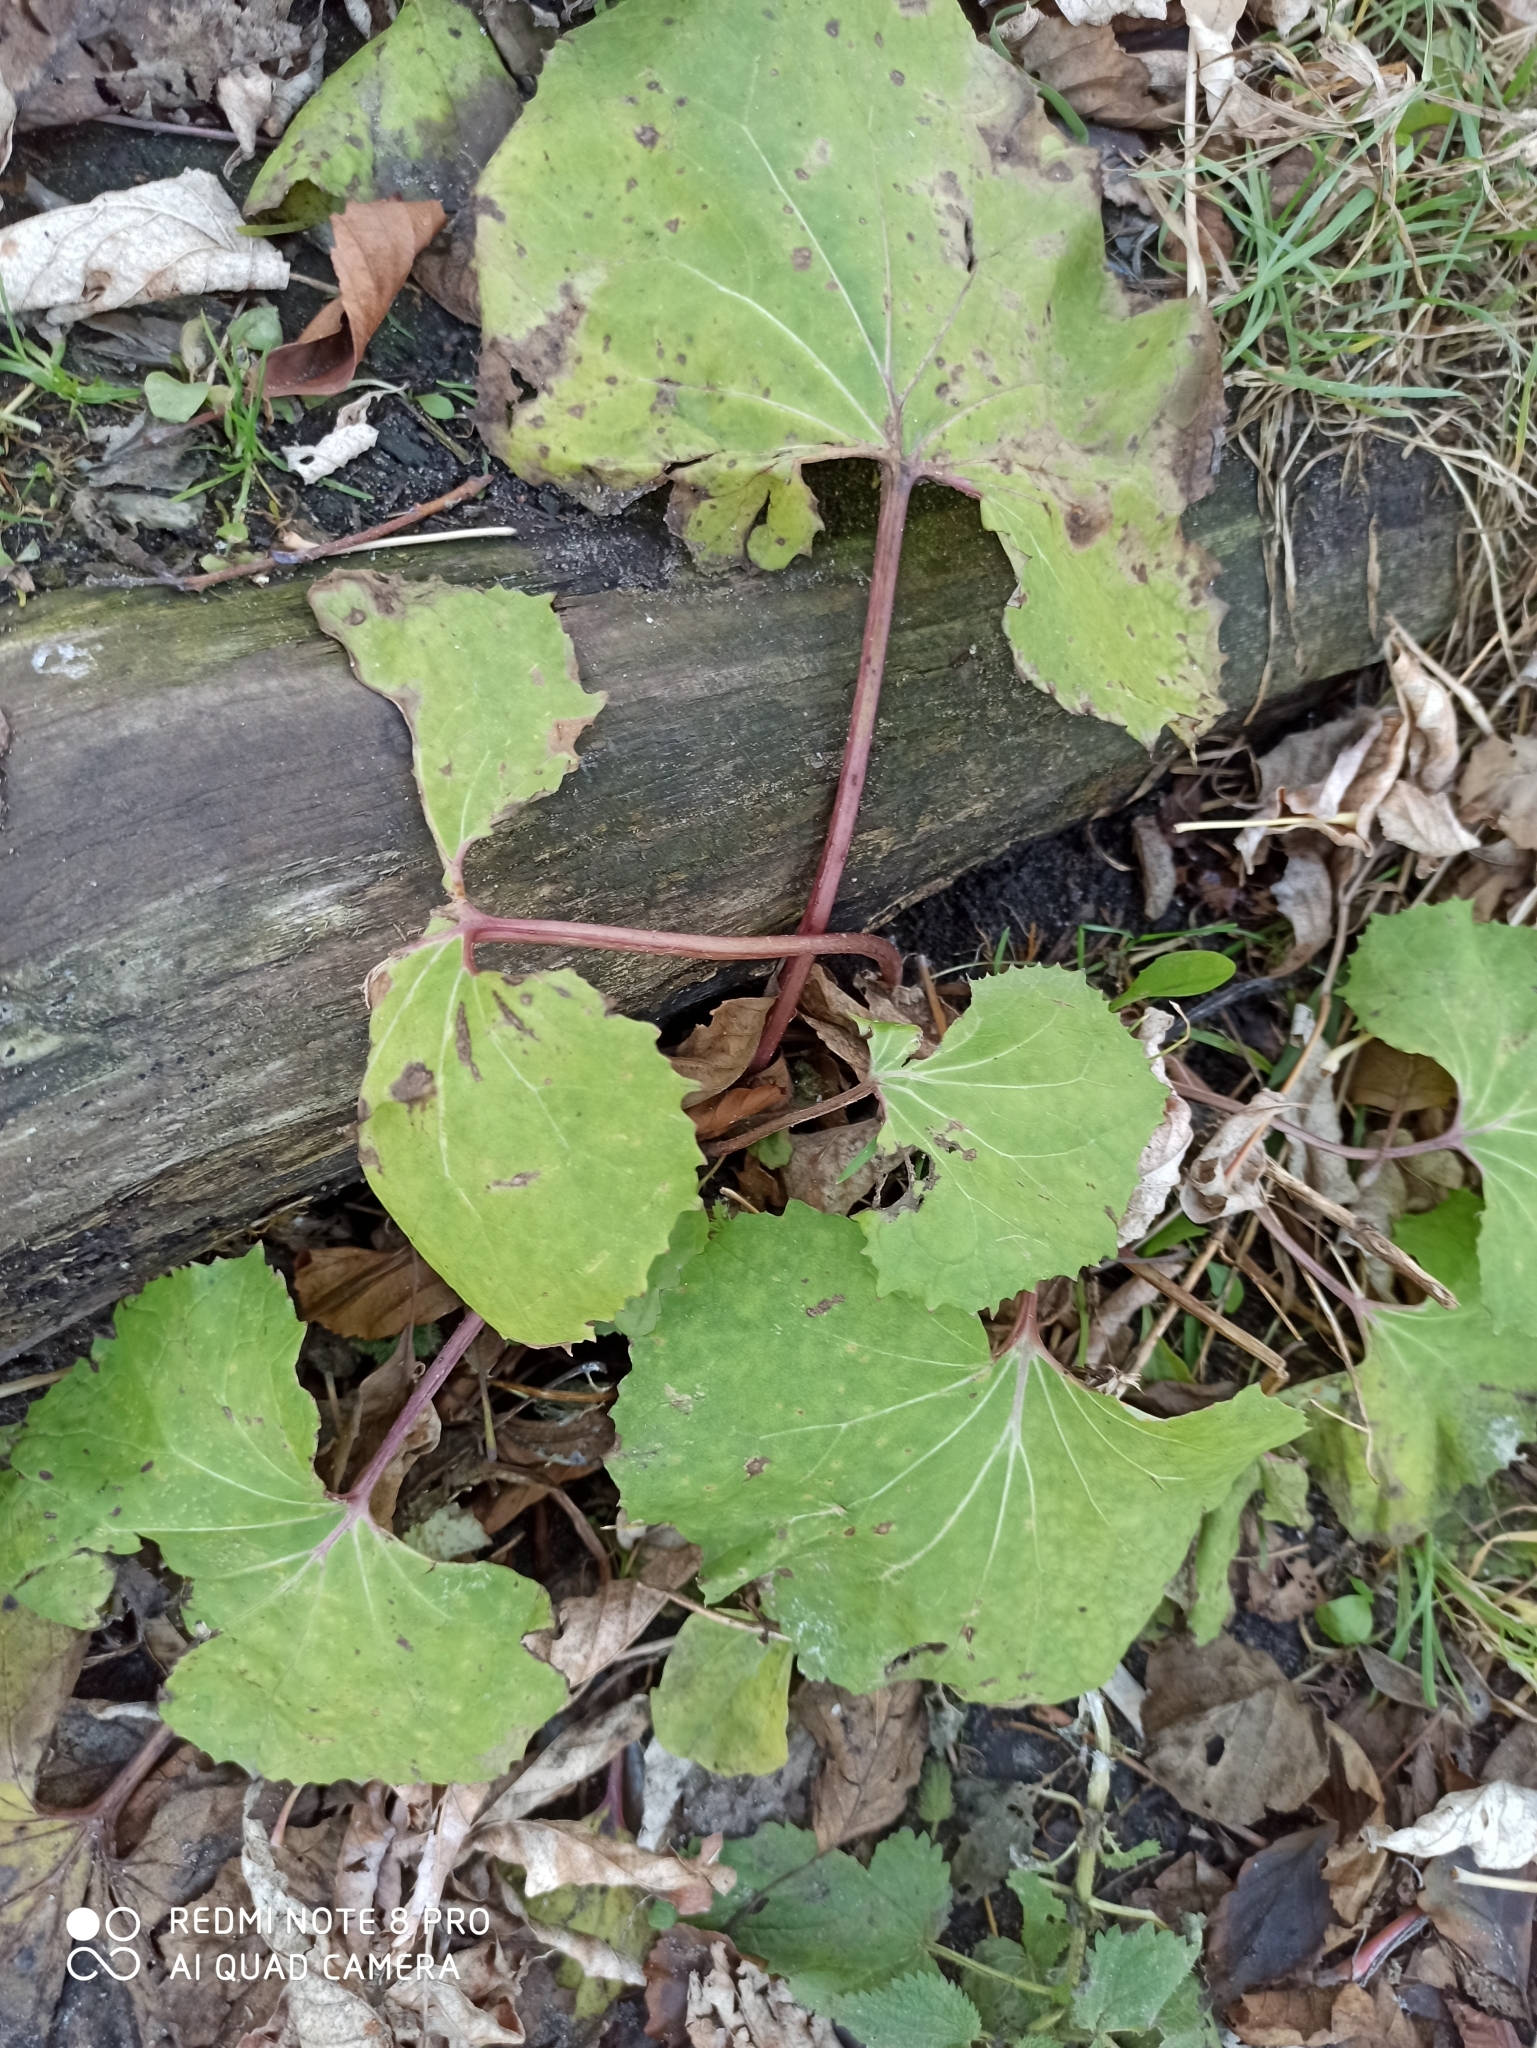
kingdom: Plantae
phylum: Tracheophyta
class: Magnoliopsida
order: Asterales
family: Asteraceae
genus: Tussilago
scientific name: Tussilago farfara
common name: Coltsfoot
